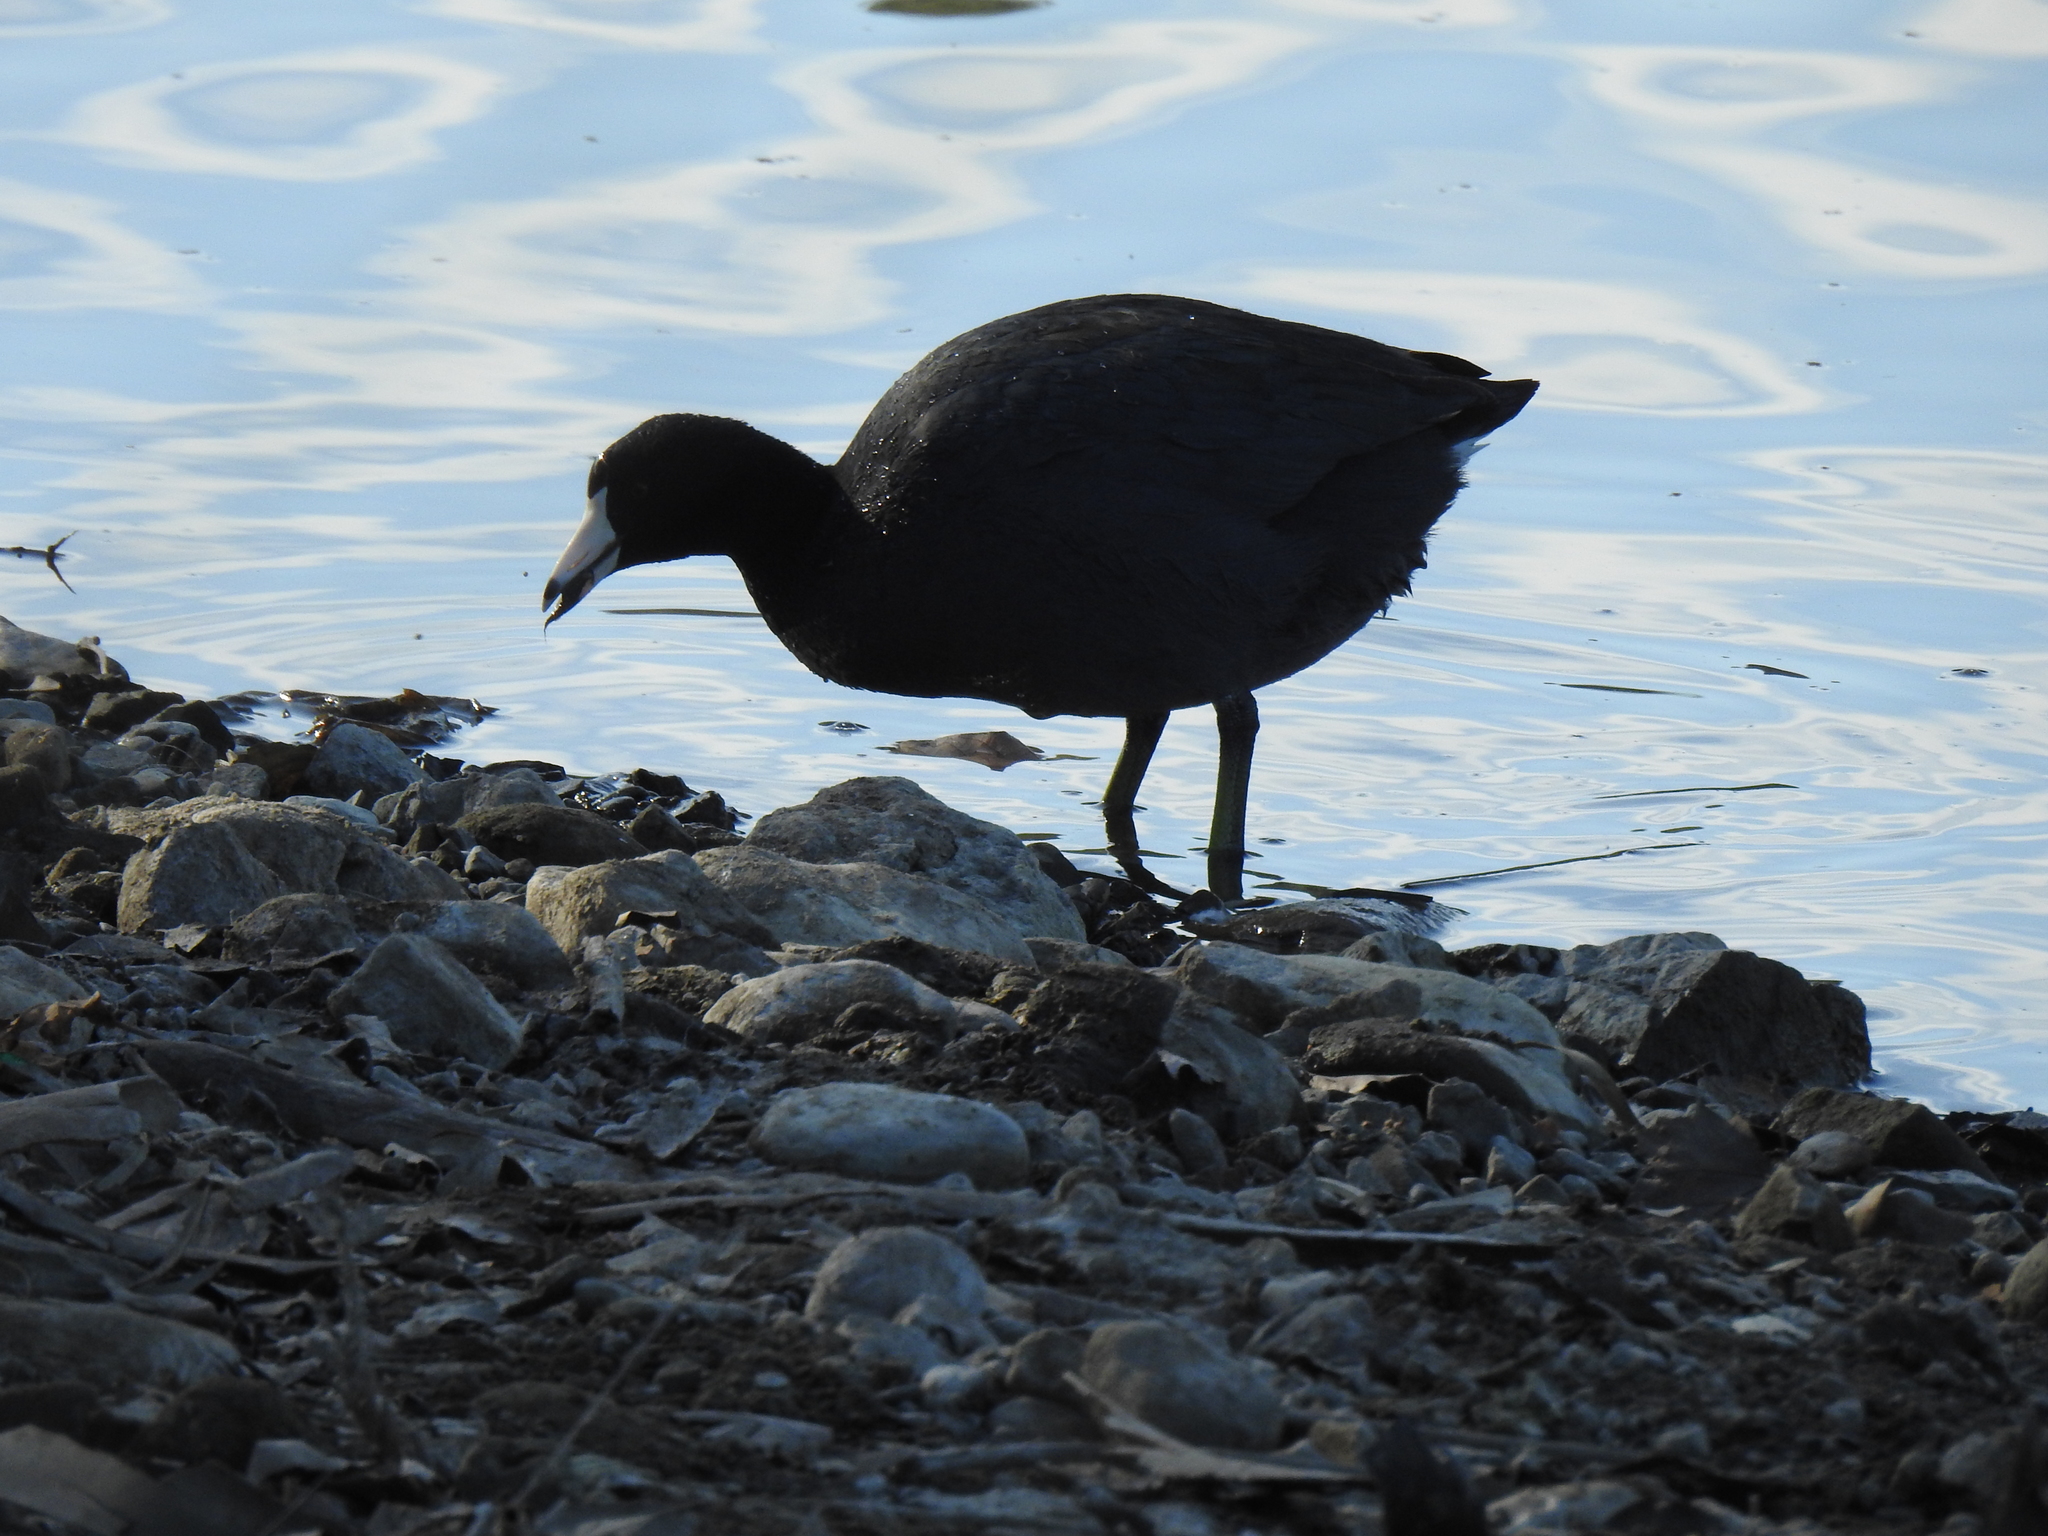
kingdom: Animalia
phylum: Chordata
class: Aves
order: Gruiformes
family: Rallidae
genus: Fulica
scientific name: Fulica americana
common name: American coot
